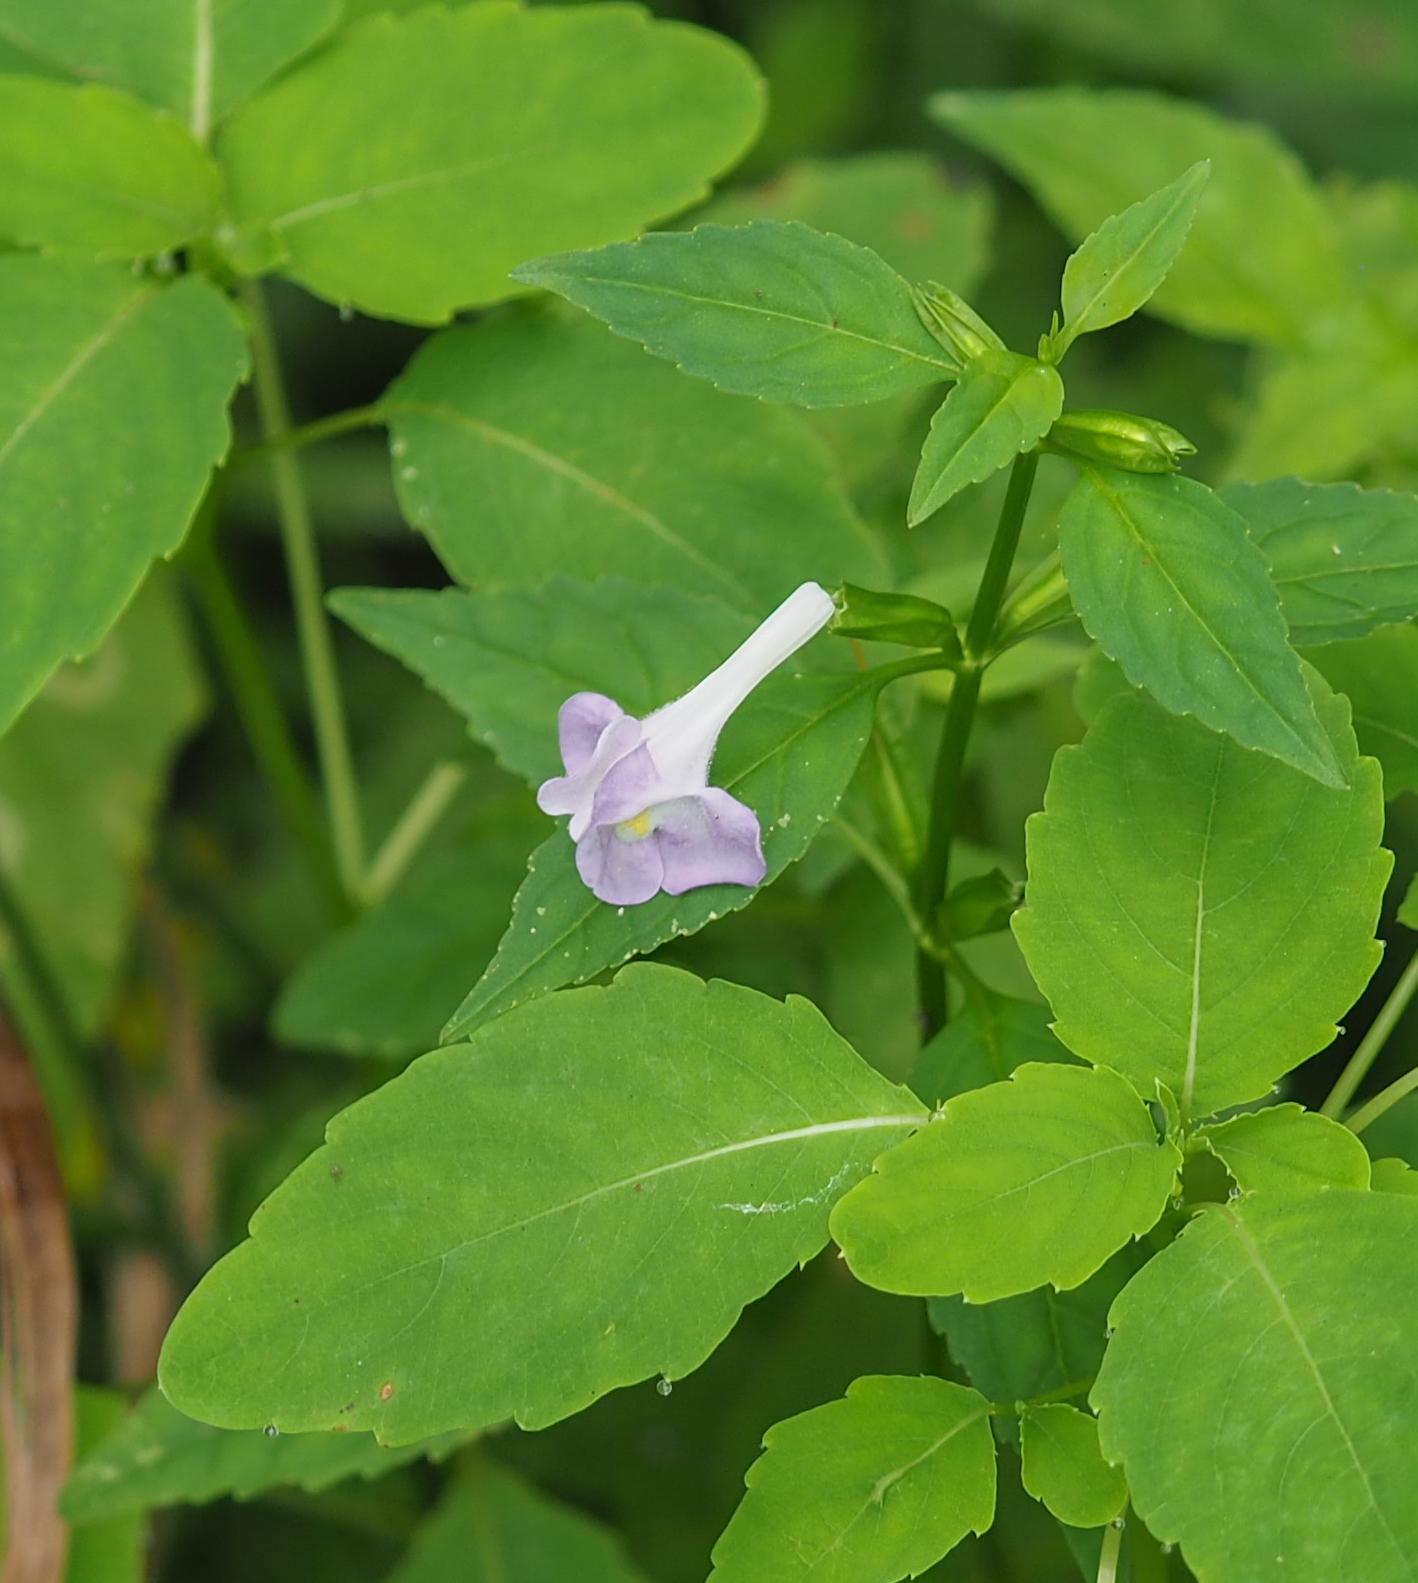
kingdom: Plantae
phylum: Tracheophyta
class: Magnoliopsida
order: Lamiales
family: Phrymaceae
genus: Mimulus
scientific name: Mimulus alatus
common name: Sharp-wing monkey-flower
